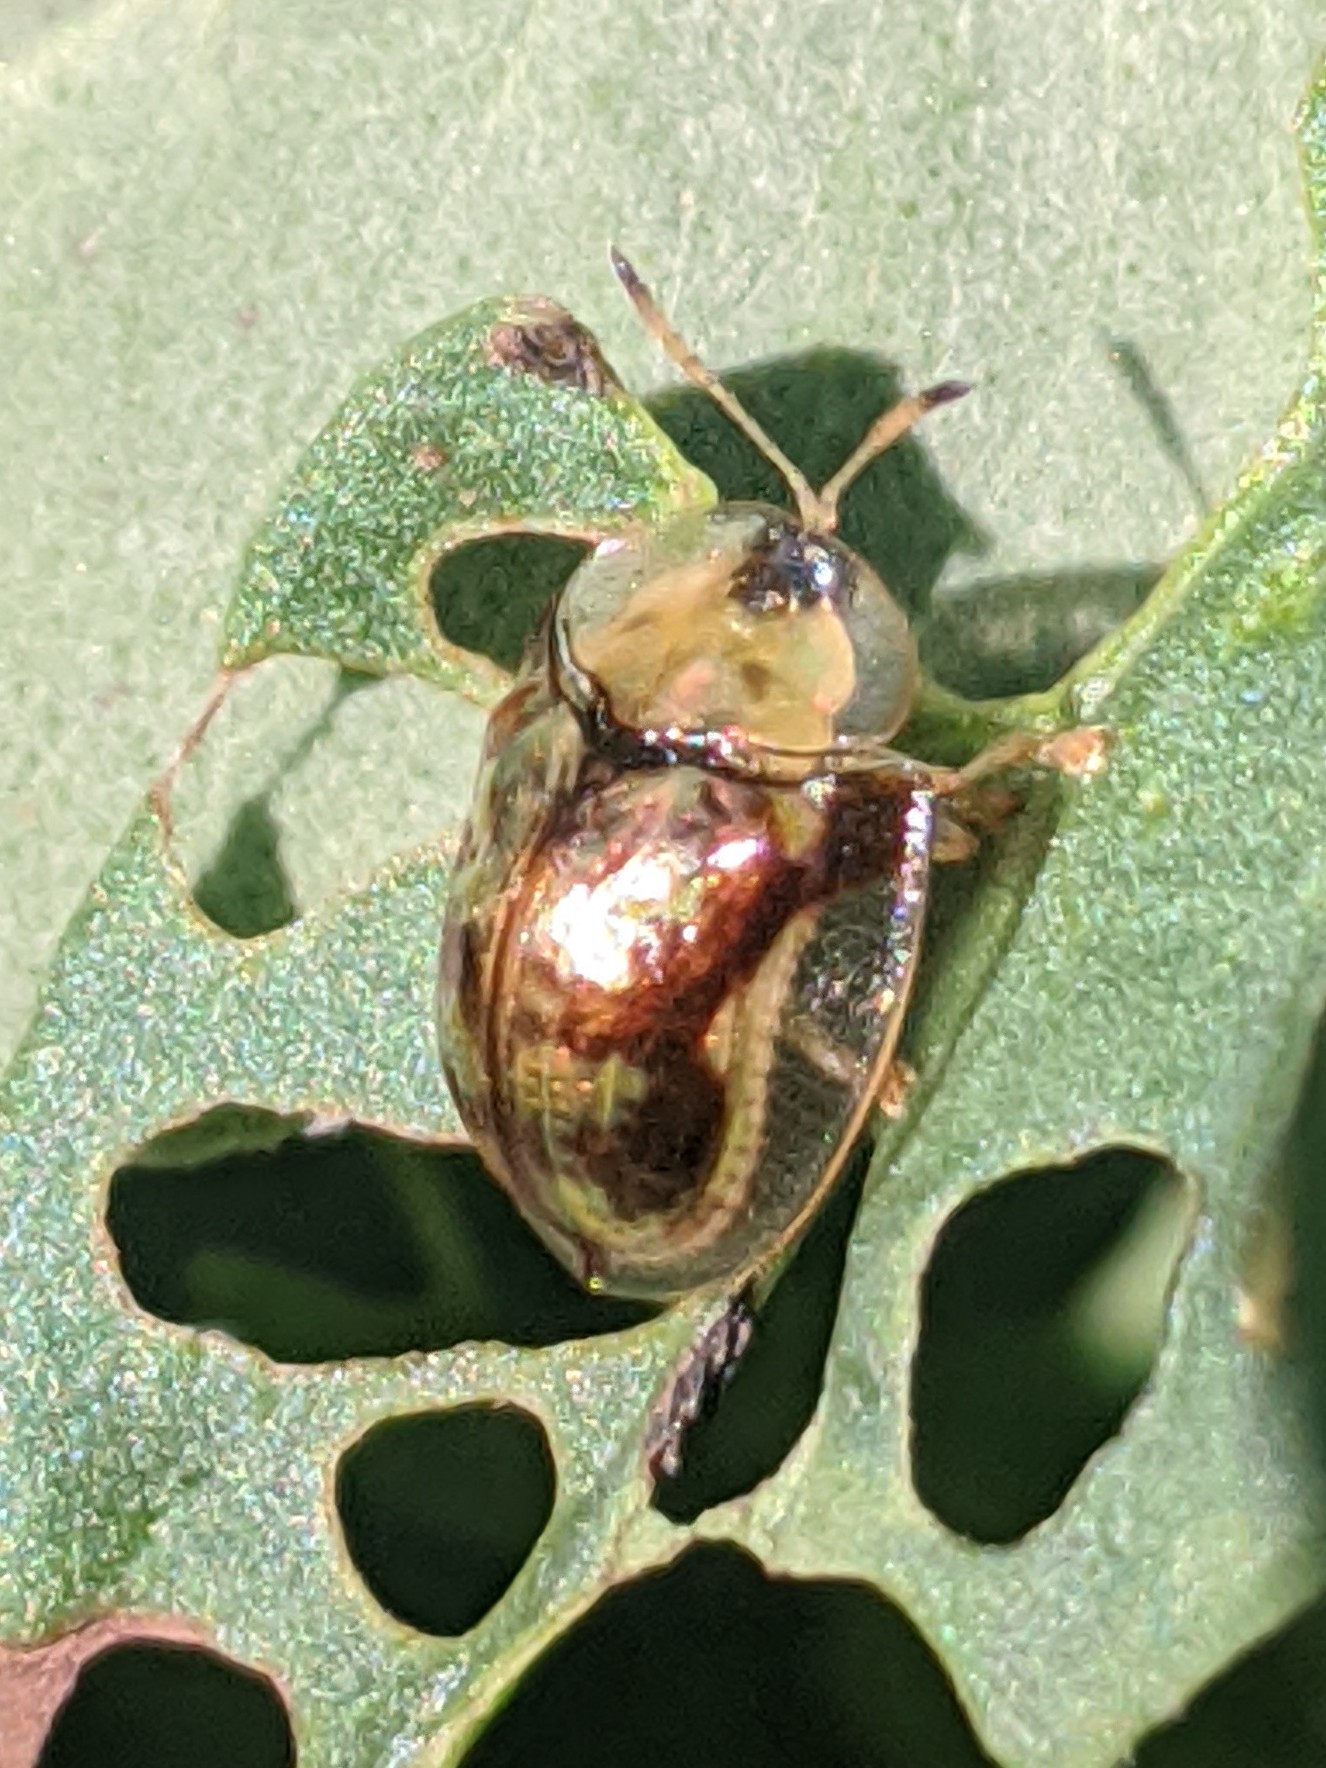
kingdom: Animalia
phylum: Arthropoda
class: Insecta
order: Coleoptera
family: Chrysomelidae
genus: Deloyala
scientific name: Deloyala guttata
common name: Mottled tortoise beetle
